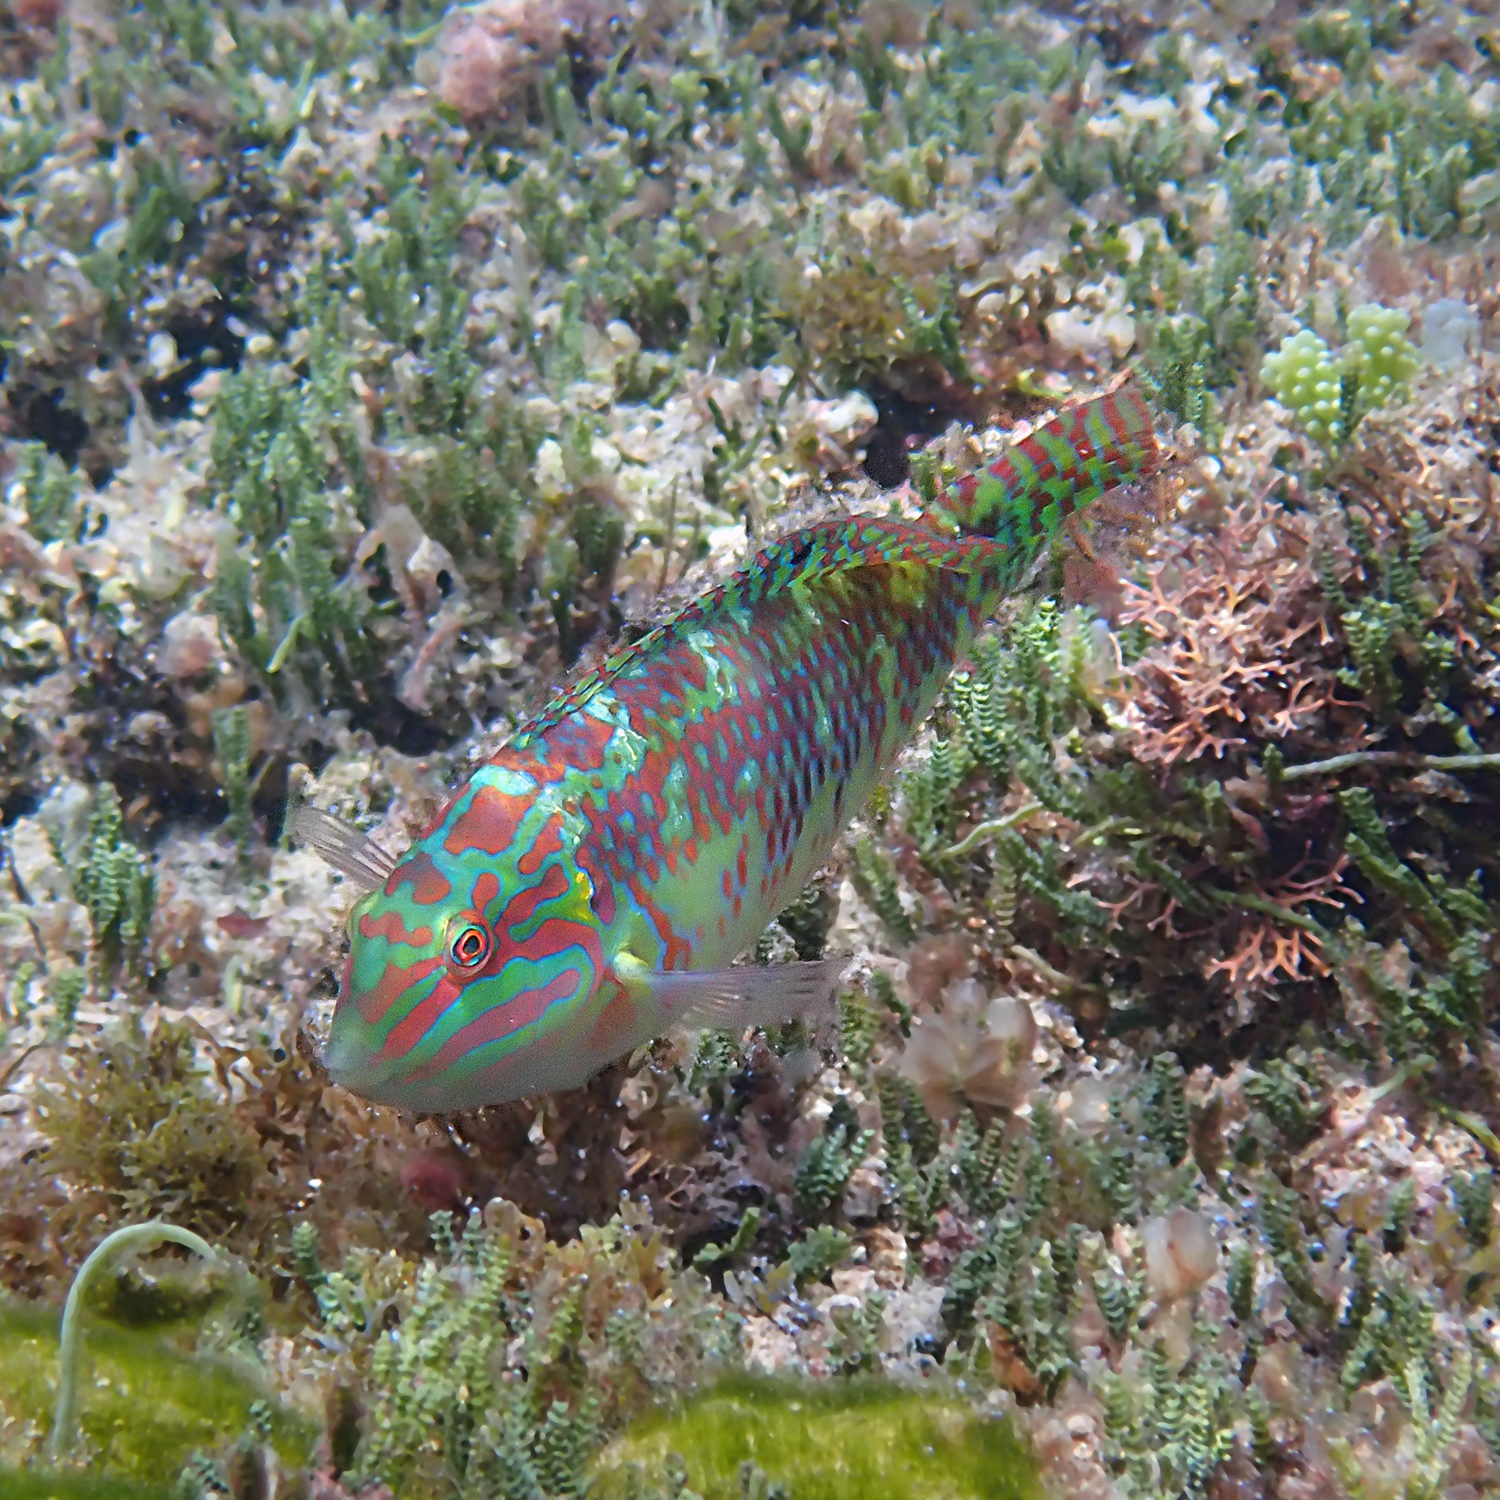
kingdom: Animalia
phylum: Chordata
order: Perciformes
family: Labridae
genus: Halichoeres
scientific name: Halichoeres margaritaceus
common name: Pink-belly wrasse
